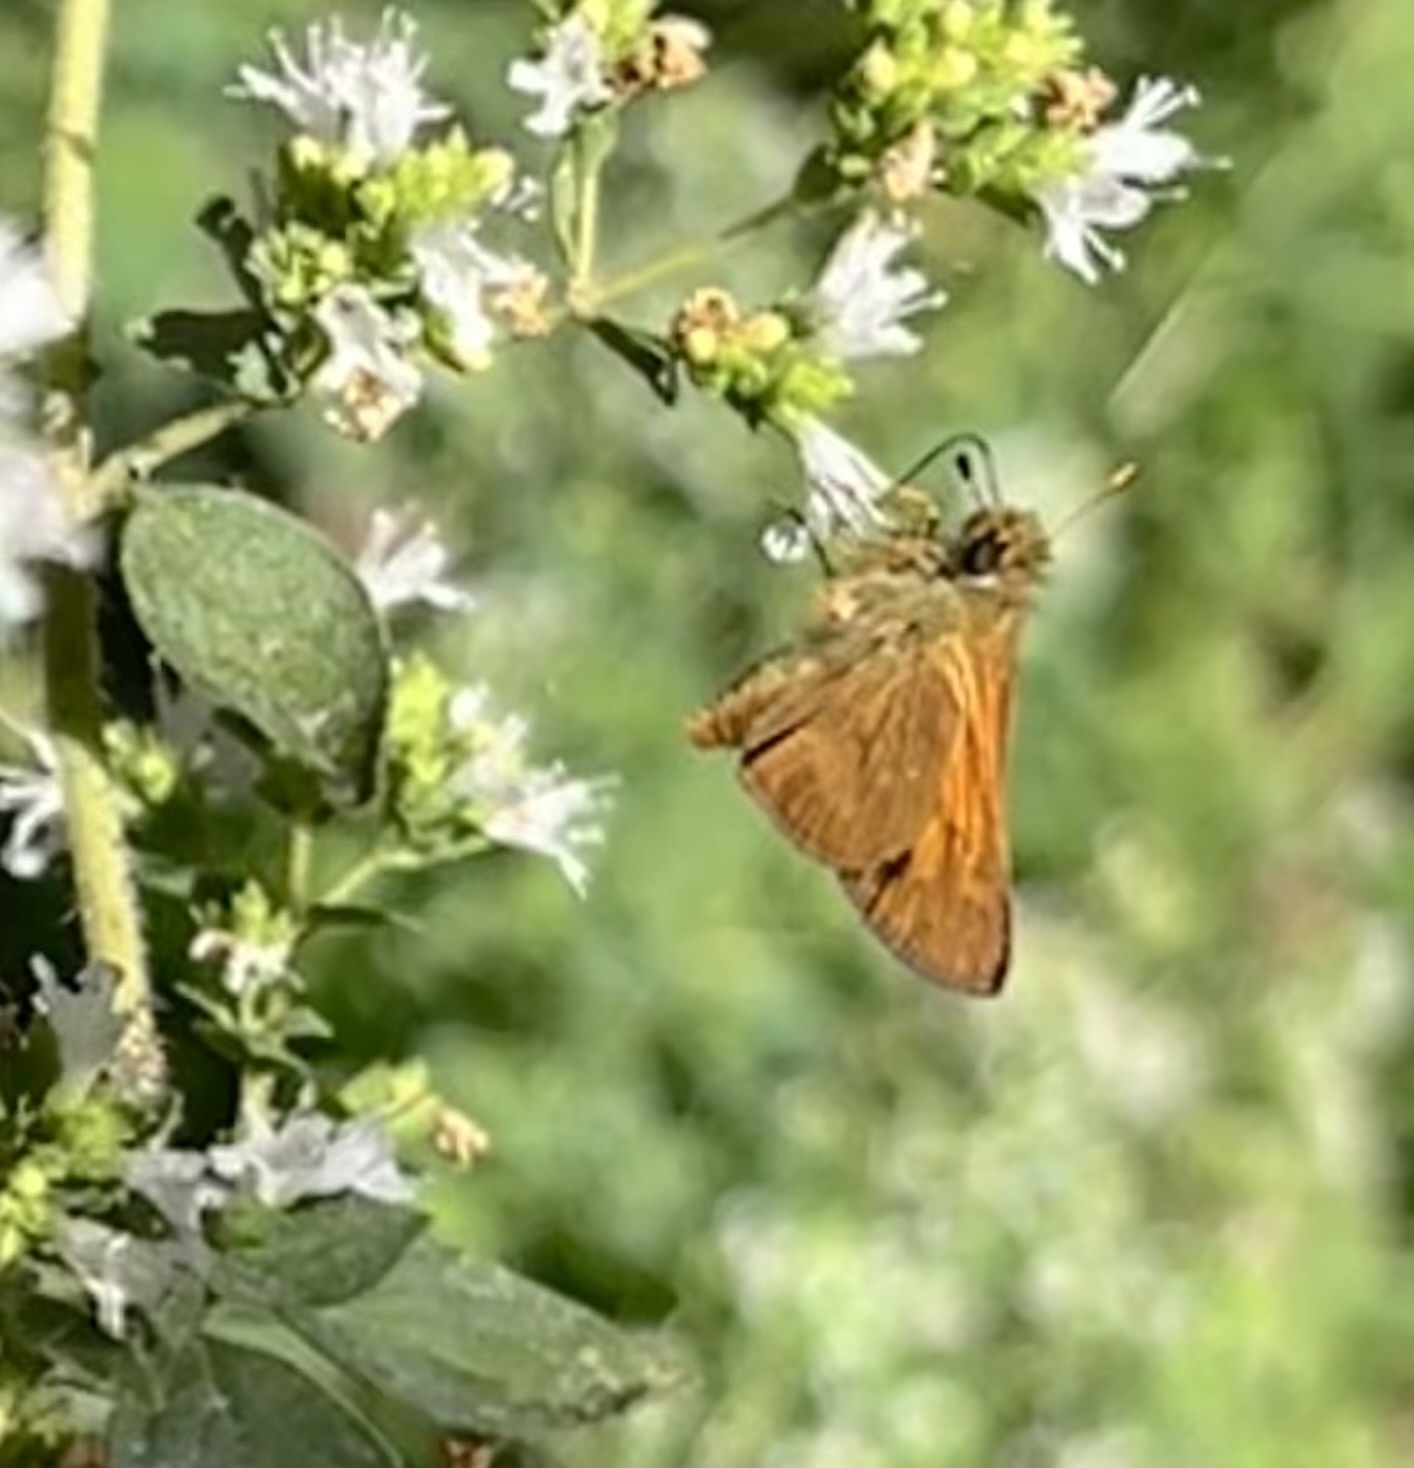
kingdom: Animalia
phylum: Arthropoda
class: Insecta
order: Lepidoptera
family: Hesperiidae
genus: Ochlodes
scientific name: Ochlodes sylvanoides
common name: Woodland skipper
